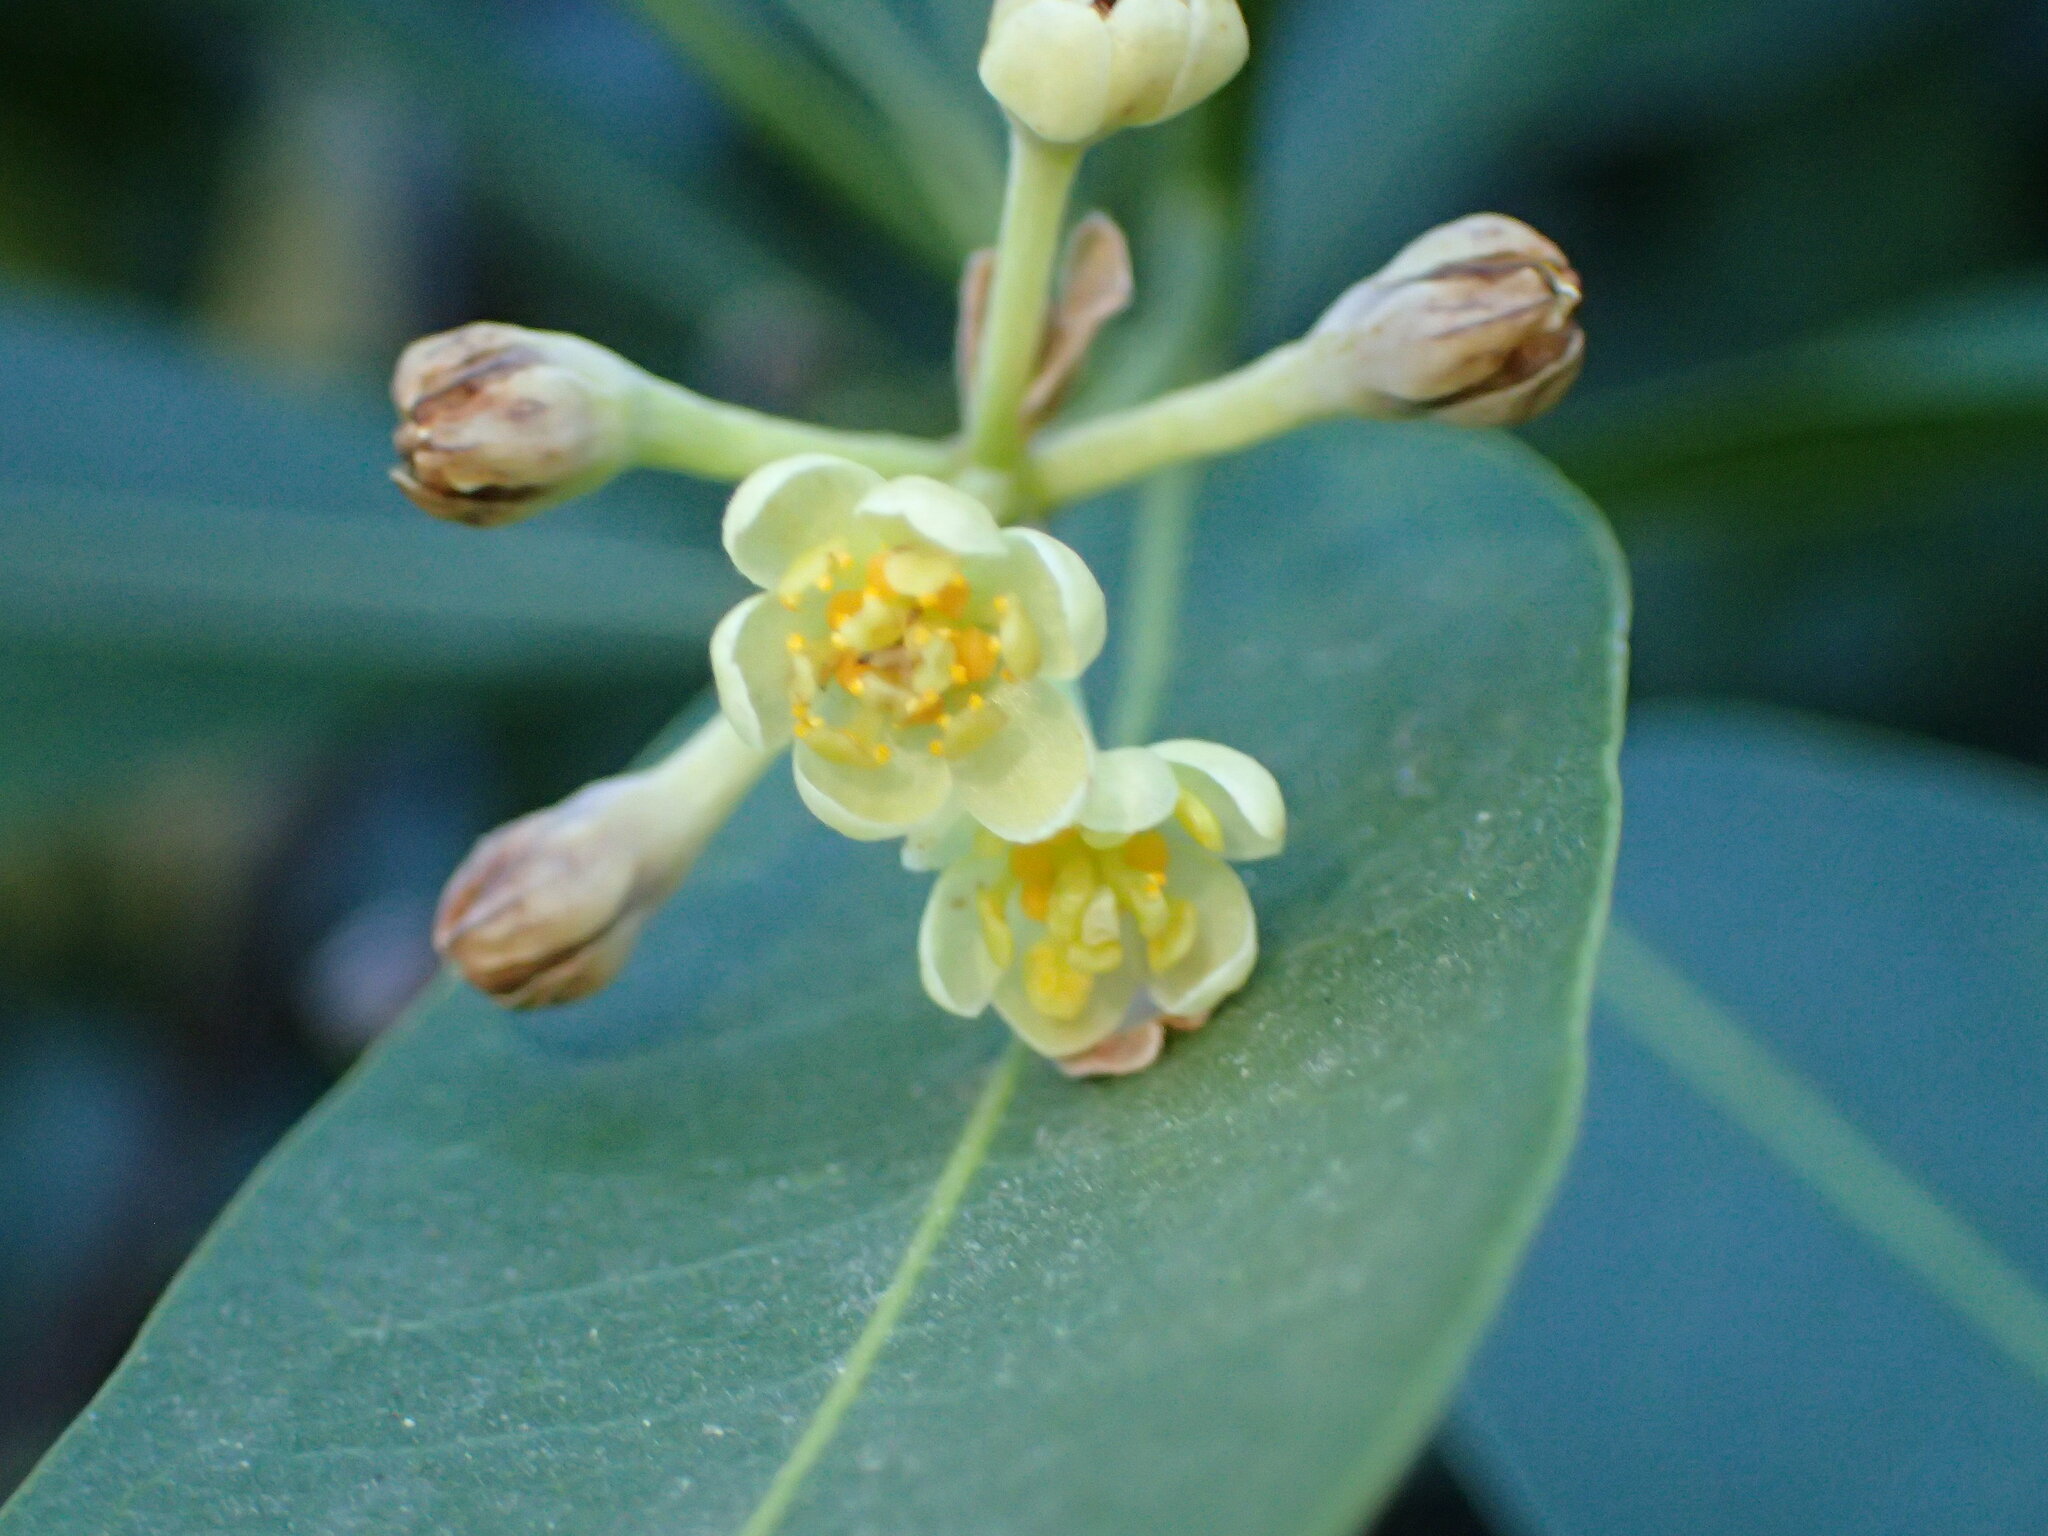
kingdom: Plantae
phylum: Tracheophyta
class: Magnoliopsida
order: Laurales
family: Lauraceae
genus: Umbellularia
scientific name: Umbellularia californica
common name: California bay
